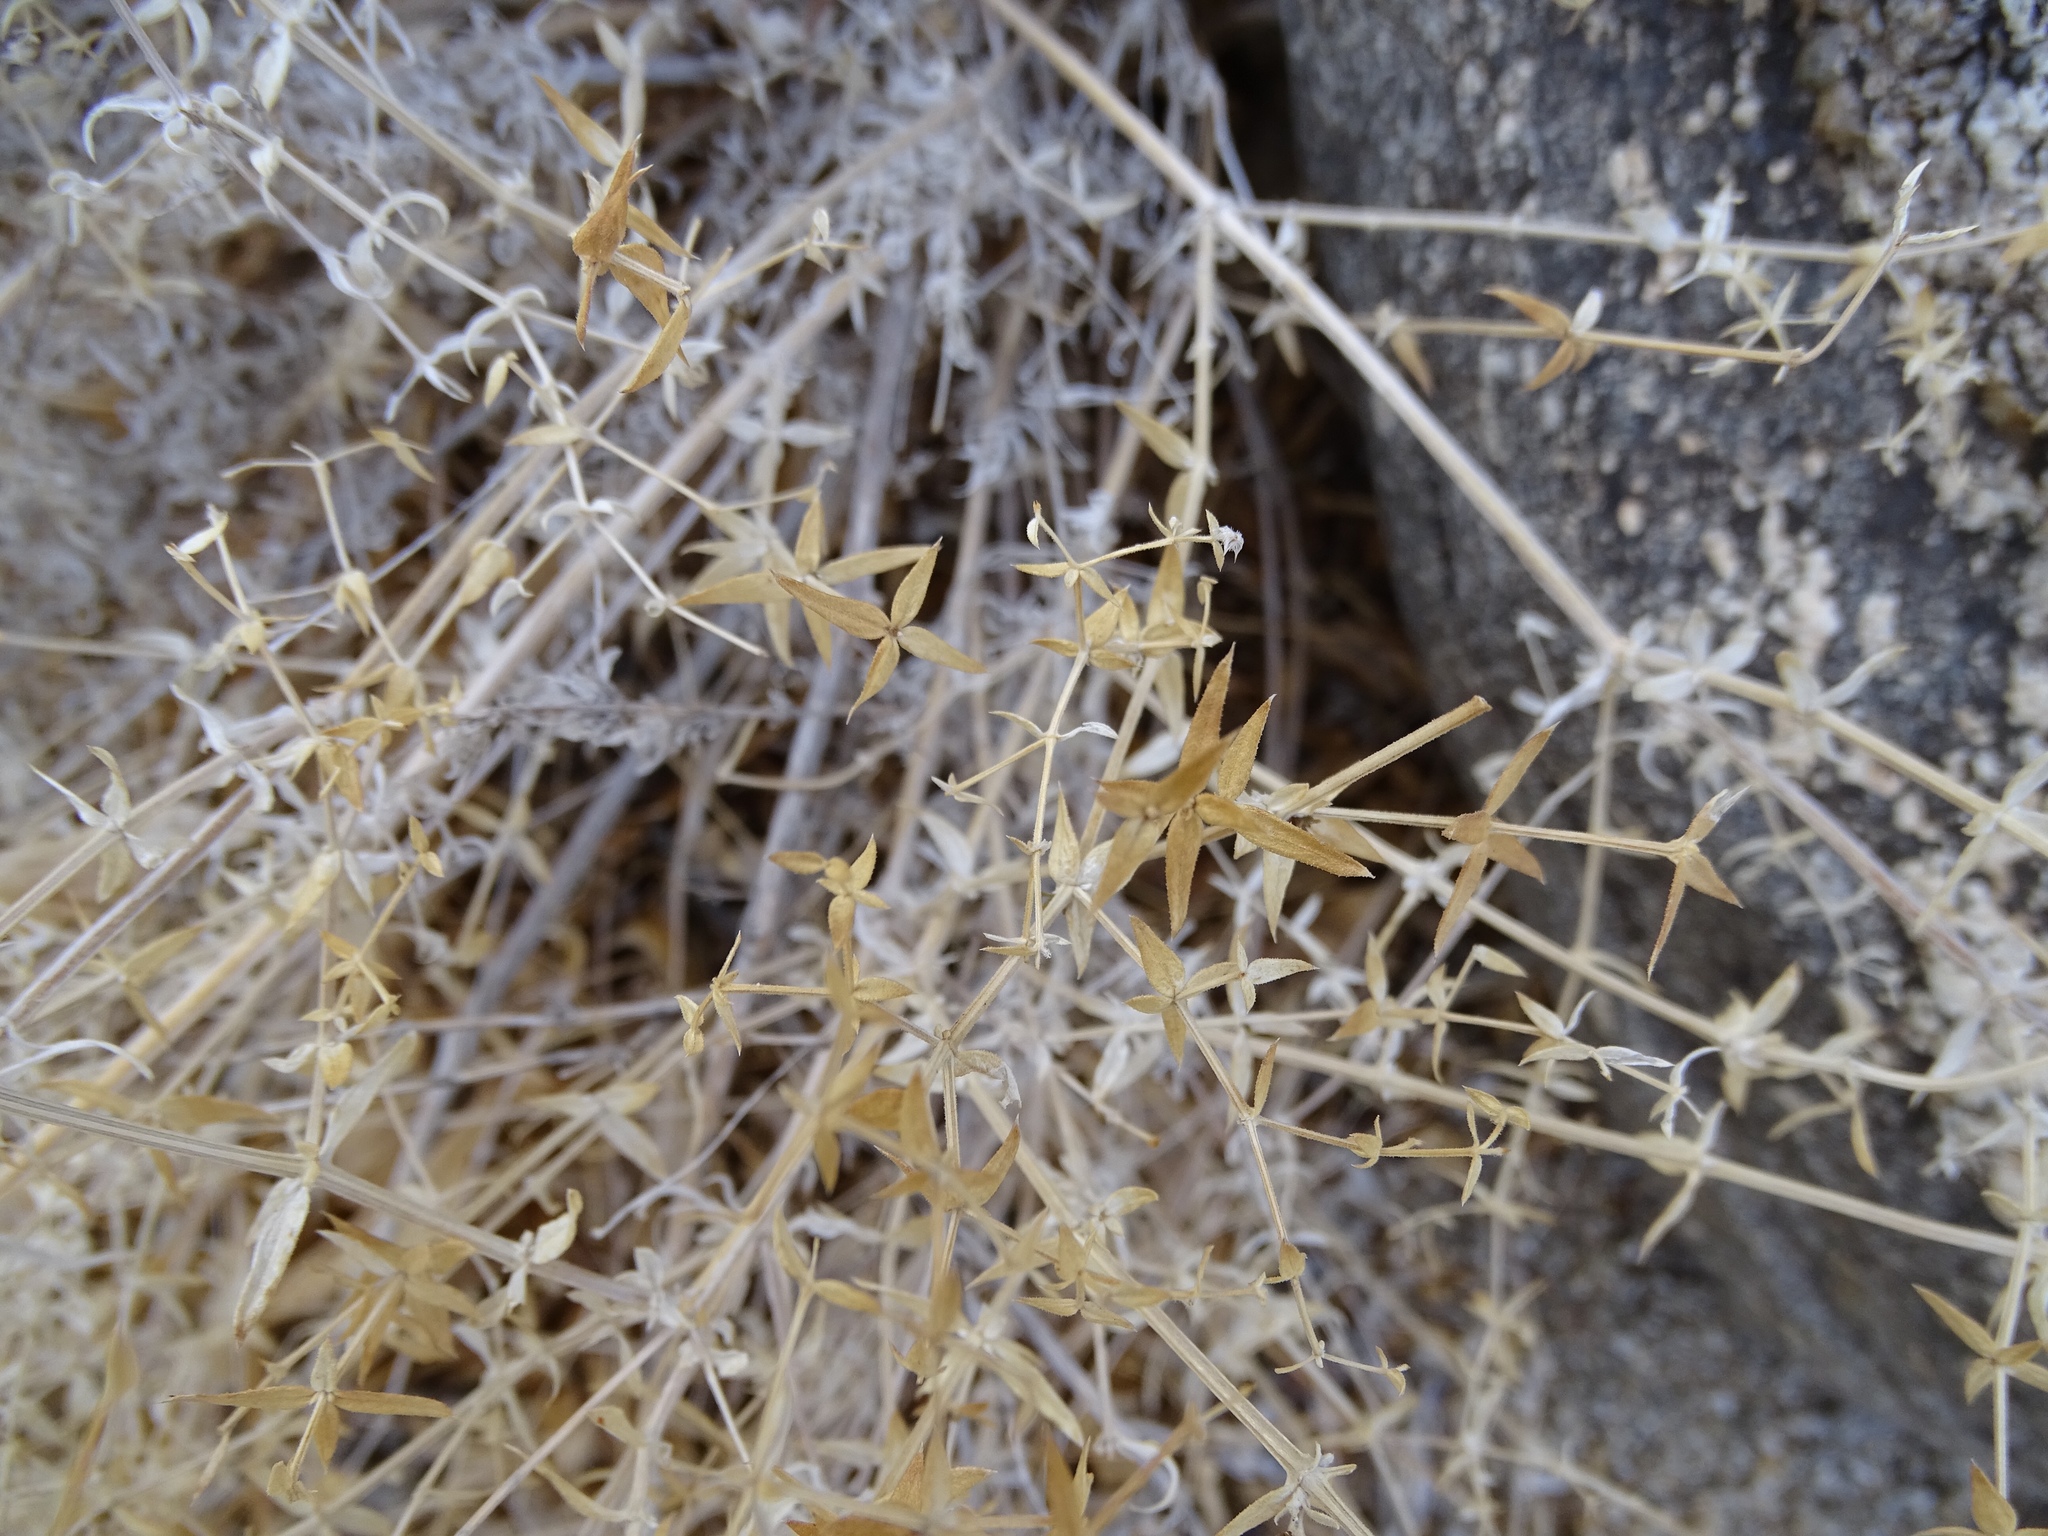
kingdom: Plantae
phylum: Tracheophyta
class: Magnoliopsida
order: Gentianales
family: Rubiaceae
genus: Galium
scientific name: Galium stellatum
